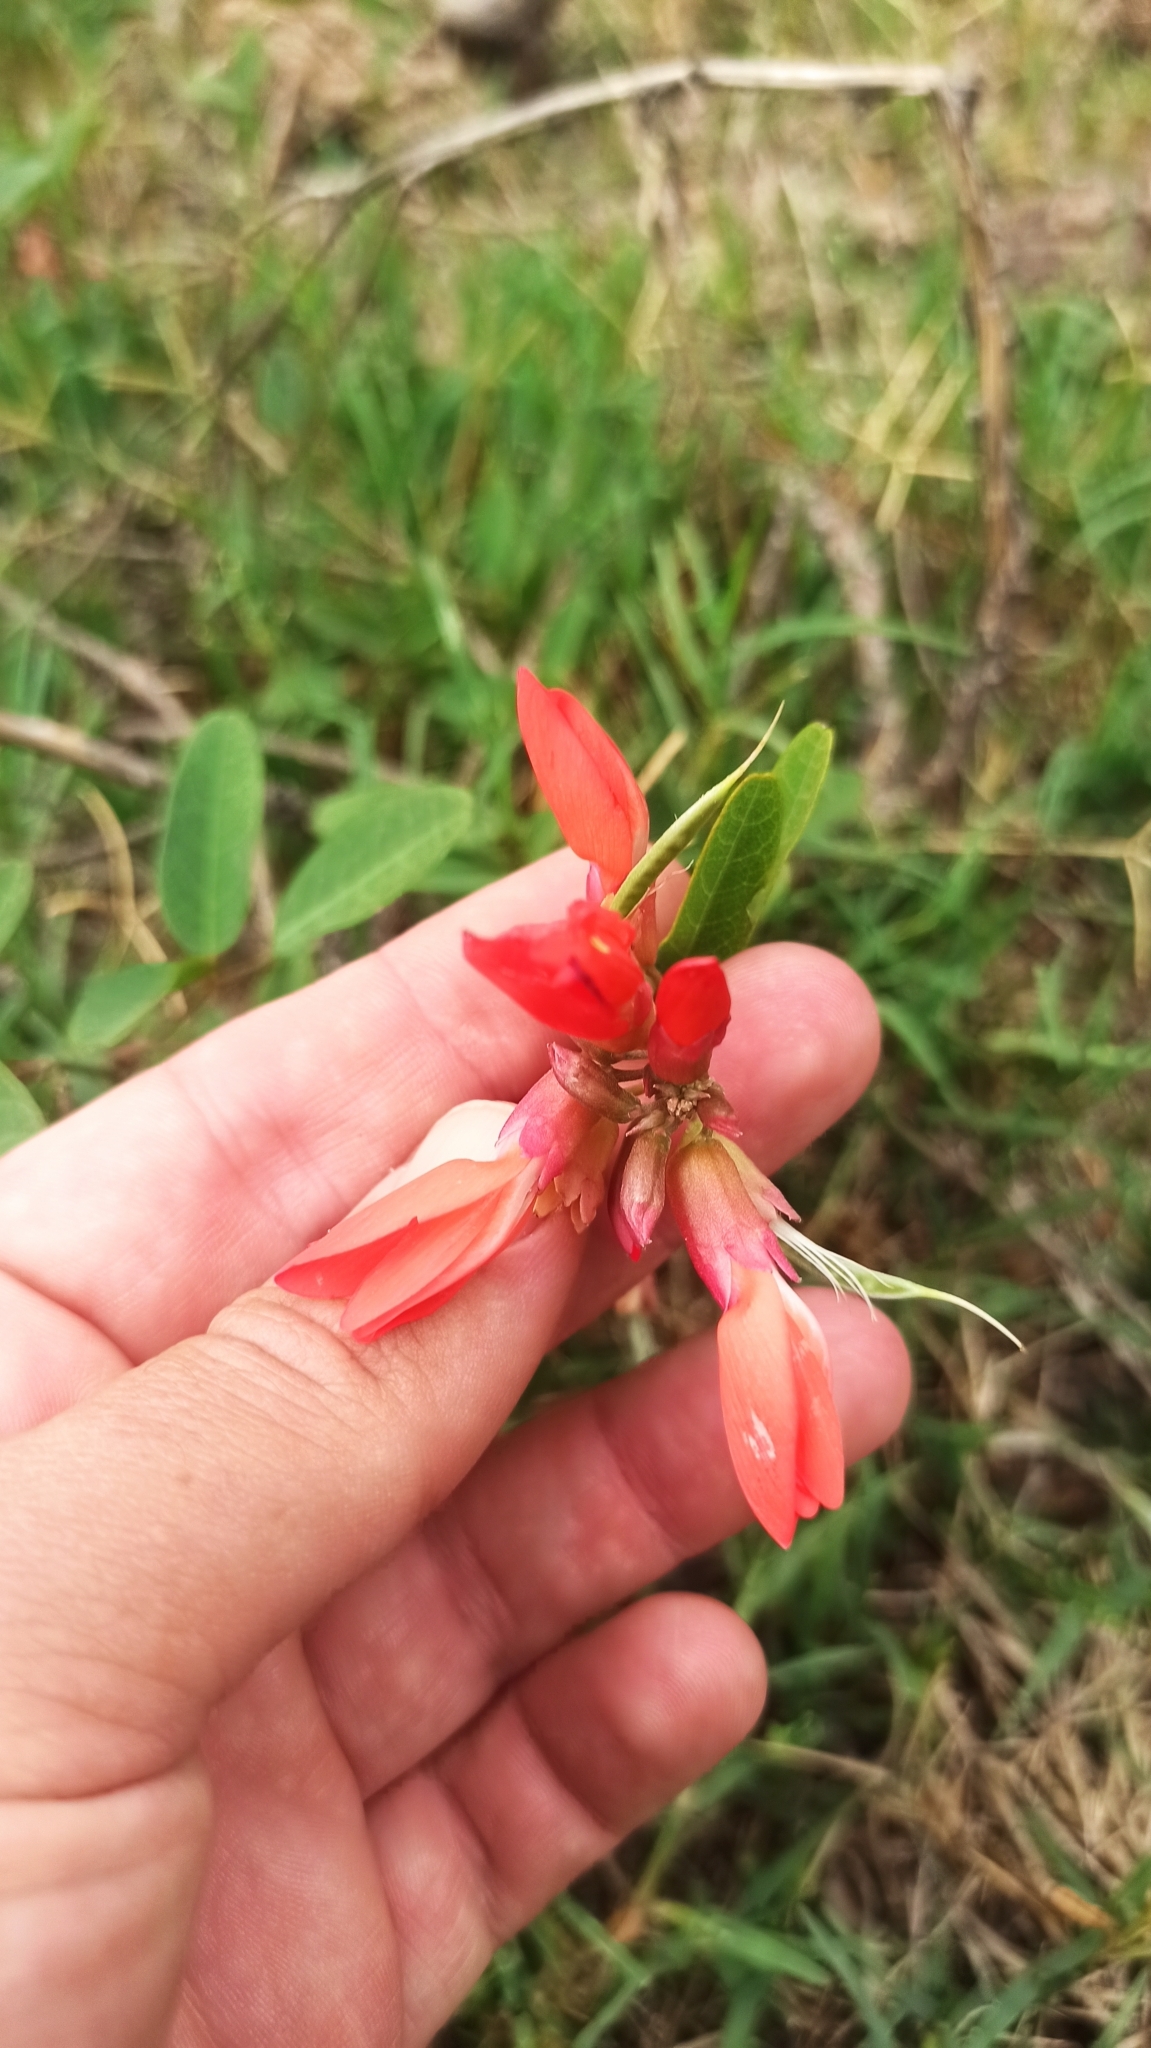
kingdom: Plantae
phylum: Tracheophyta
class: Magnoliopsida
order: Fabales
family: Fabaceae
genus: Camptosema
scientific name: Camptosema rubicundum
